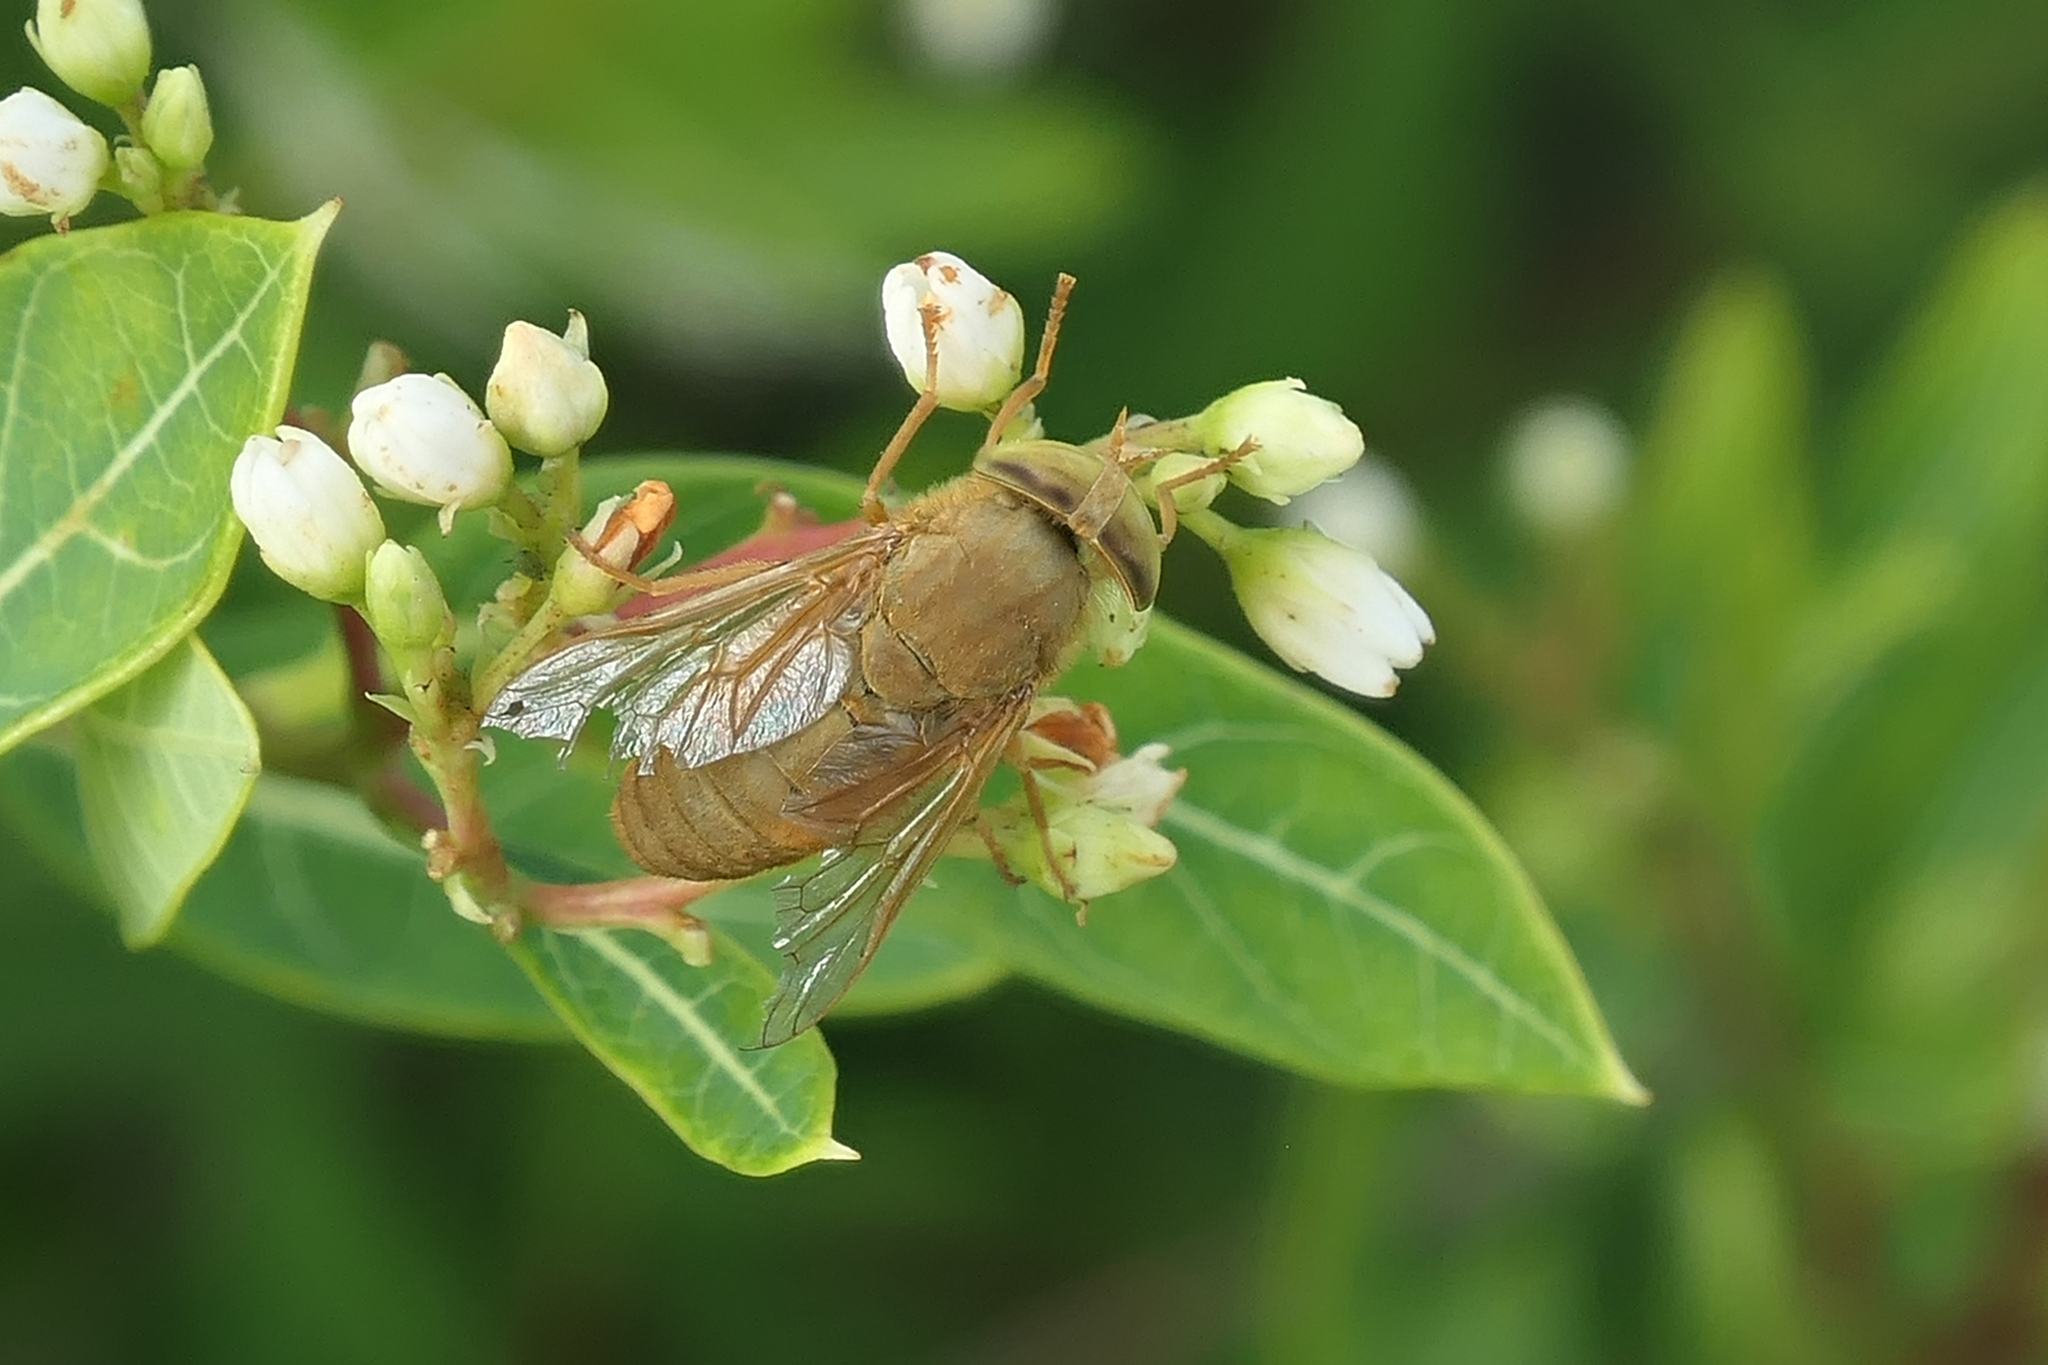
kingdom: Animalia
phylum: Arthropoda
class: Insecta
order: Diptera
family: Tabanidae
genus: Atylotus
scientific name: Atylotus bicolor
